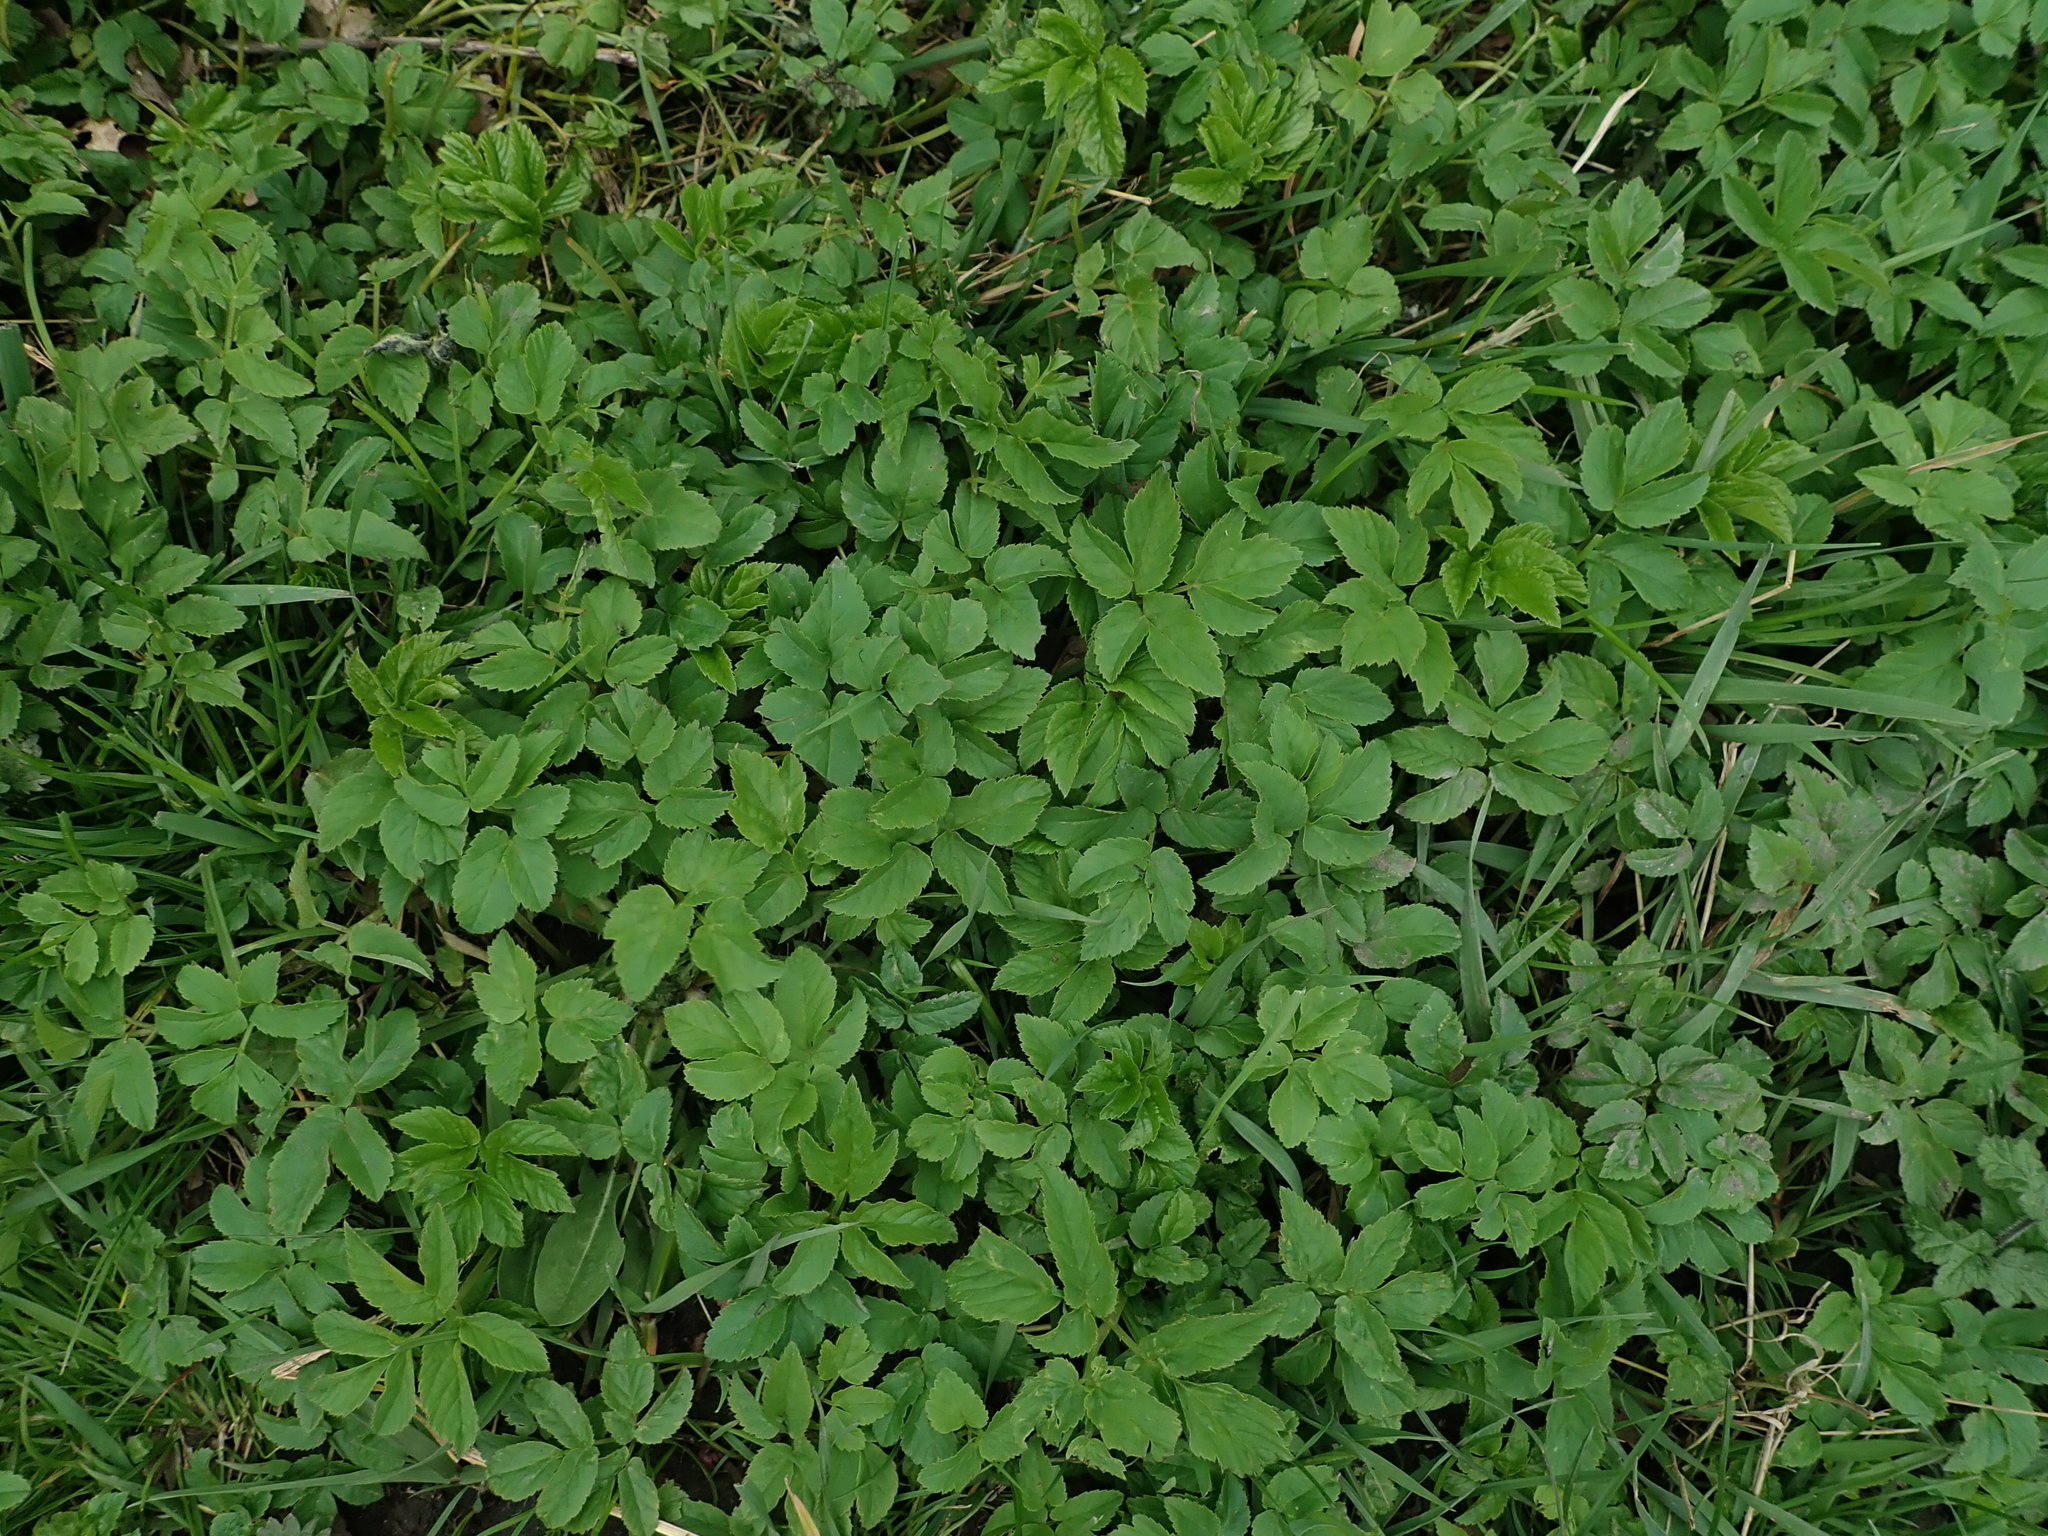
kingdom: Plantae
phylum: Tracheophyta
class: Magnoliopsida
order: Apiales
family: Apiaceae
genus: Aegopodium
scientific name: Aegopodium podagraria
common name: Ground-elder
